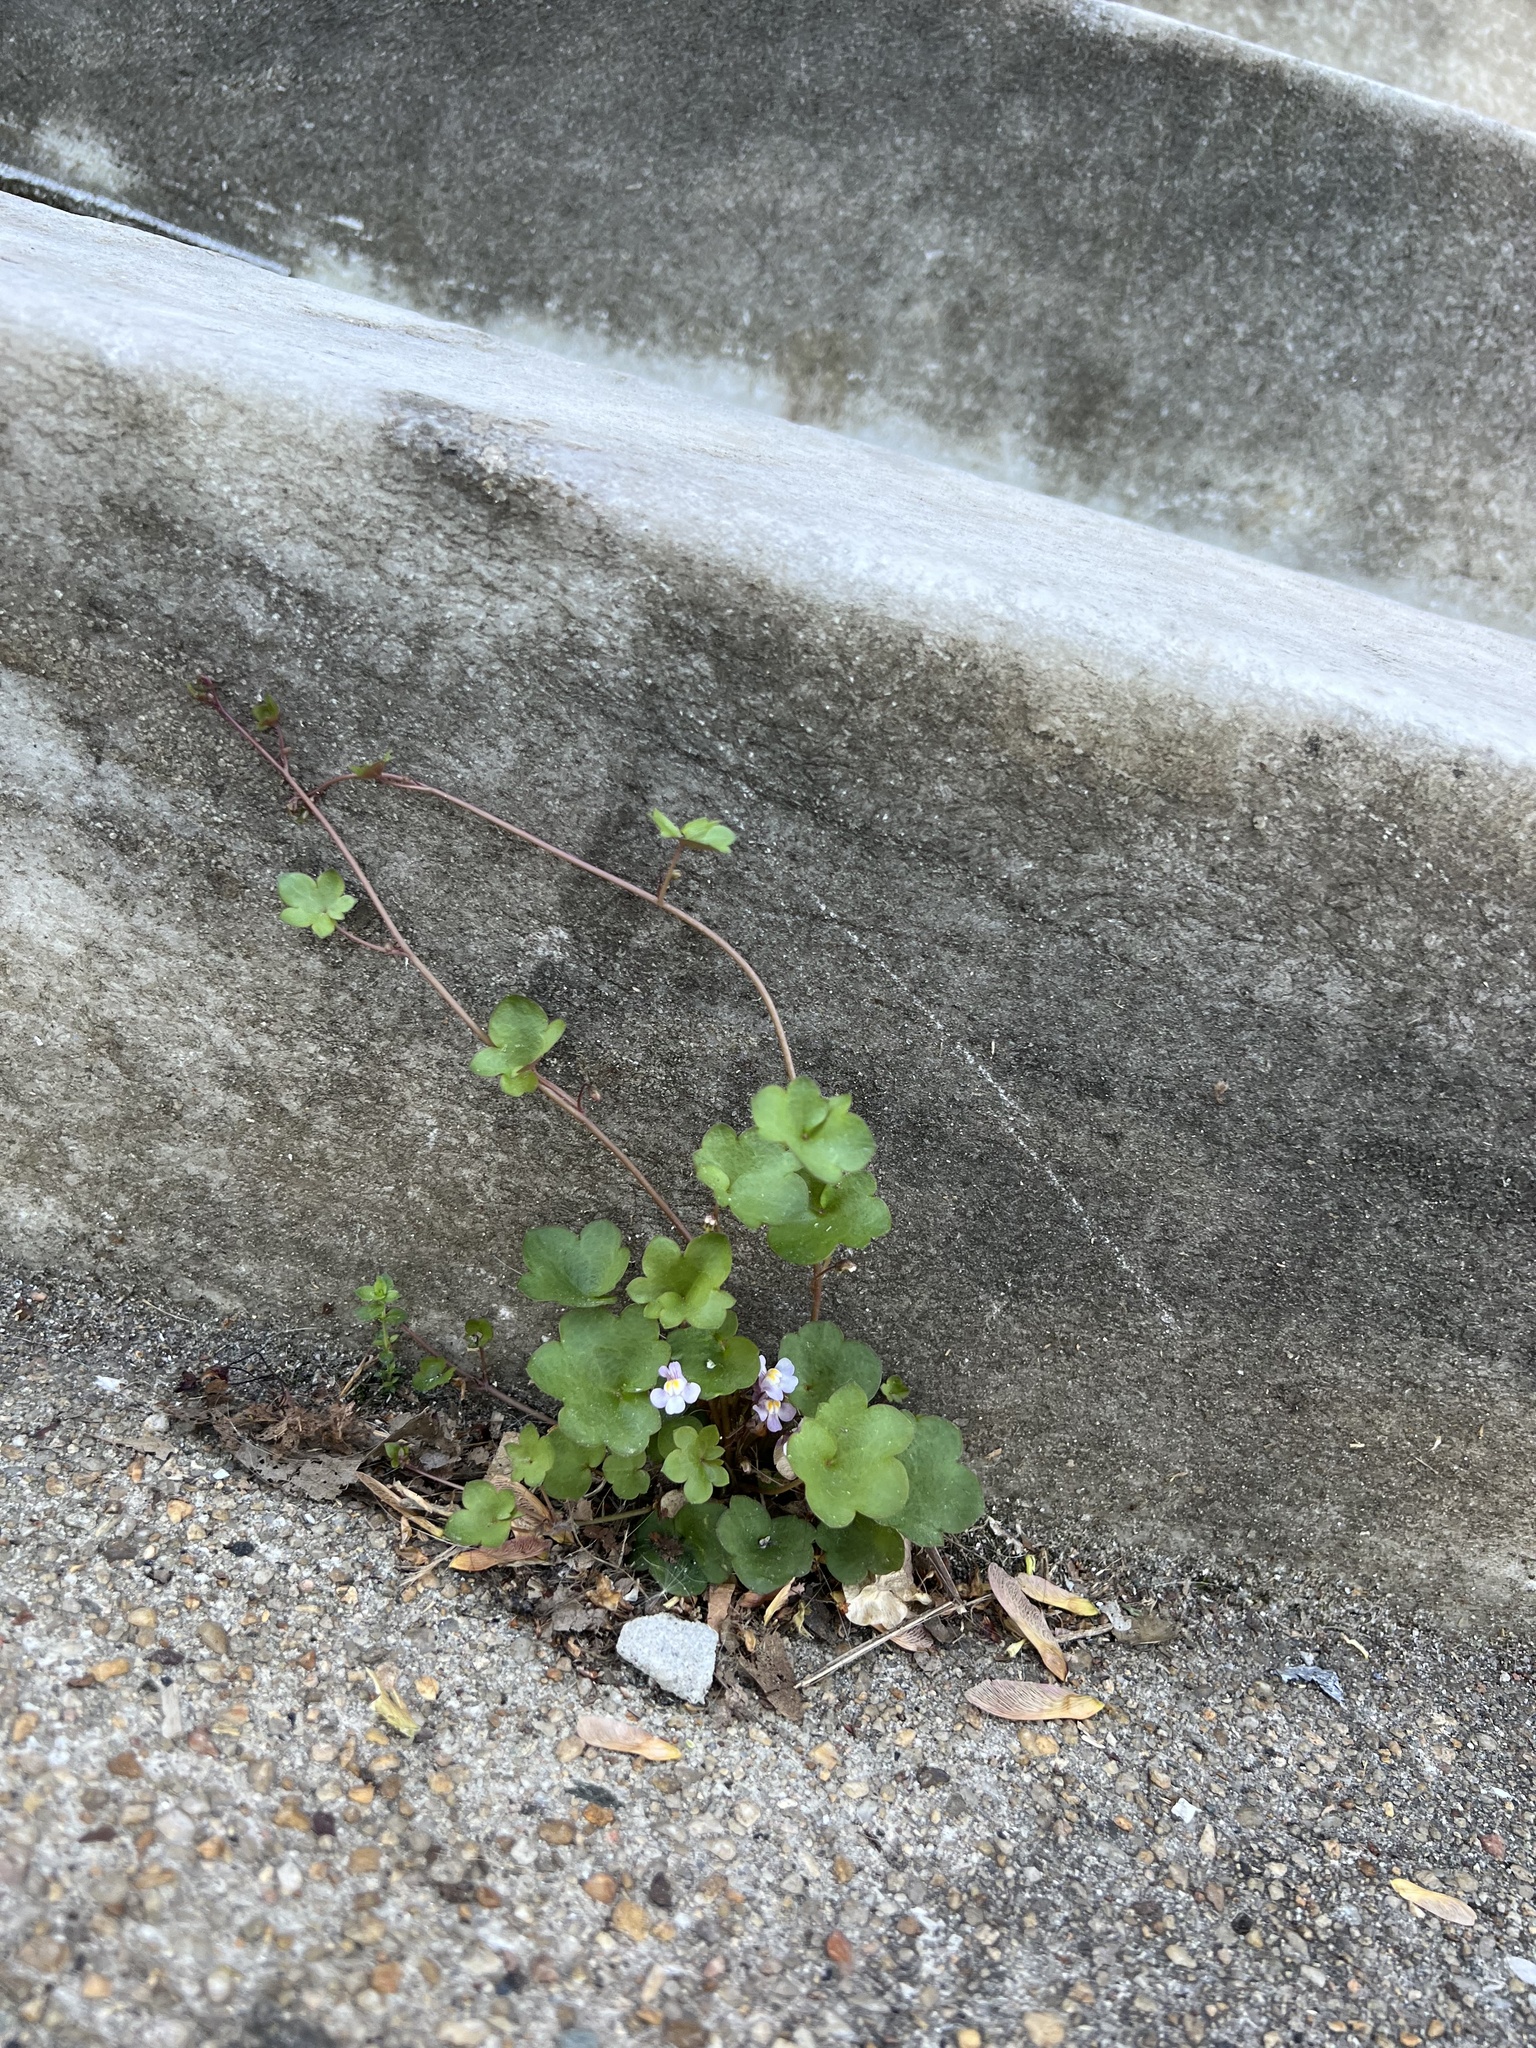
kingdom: Plantae
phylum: Tracheophyta
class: Magnoliopsida
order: Lamiales
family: Plantaginaceae
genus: Cymbalaria
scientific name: Cymbalaria muralis
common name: Ivy-leaved toadflax
